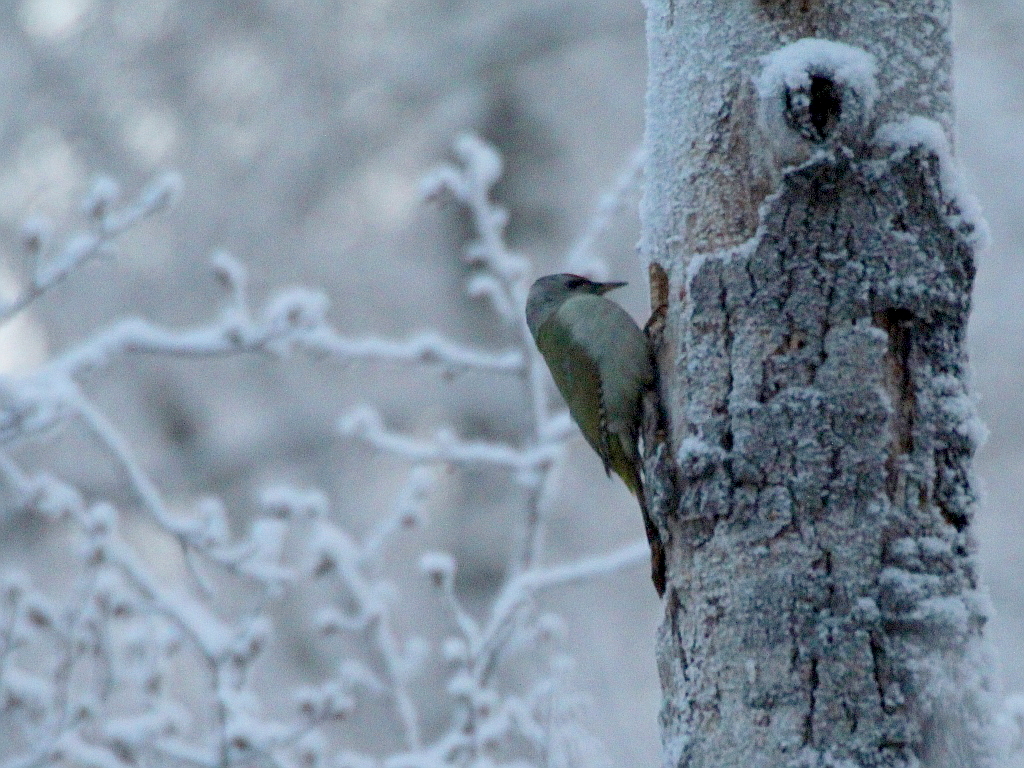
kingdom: Animalia
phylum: Chordata
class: Aves
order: Piciformes
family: Picidae
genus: Picus
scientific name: Picus canus
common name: Grey-headed woodpecker
